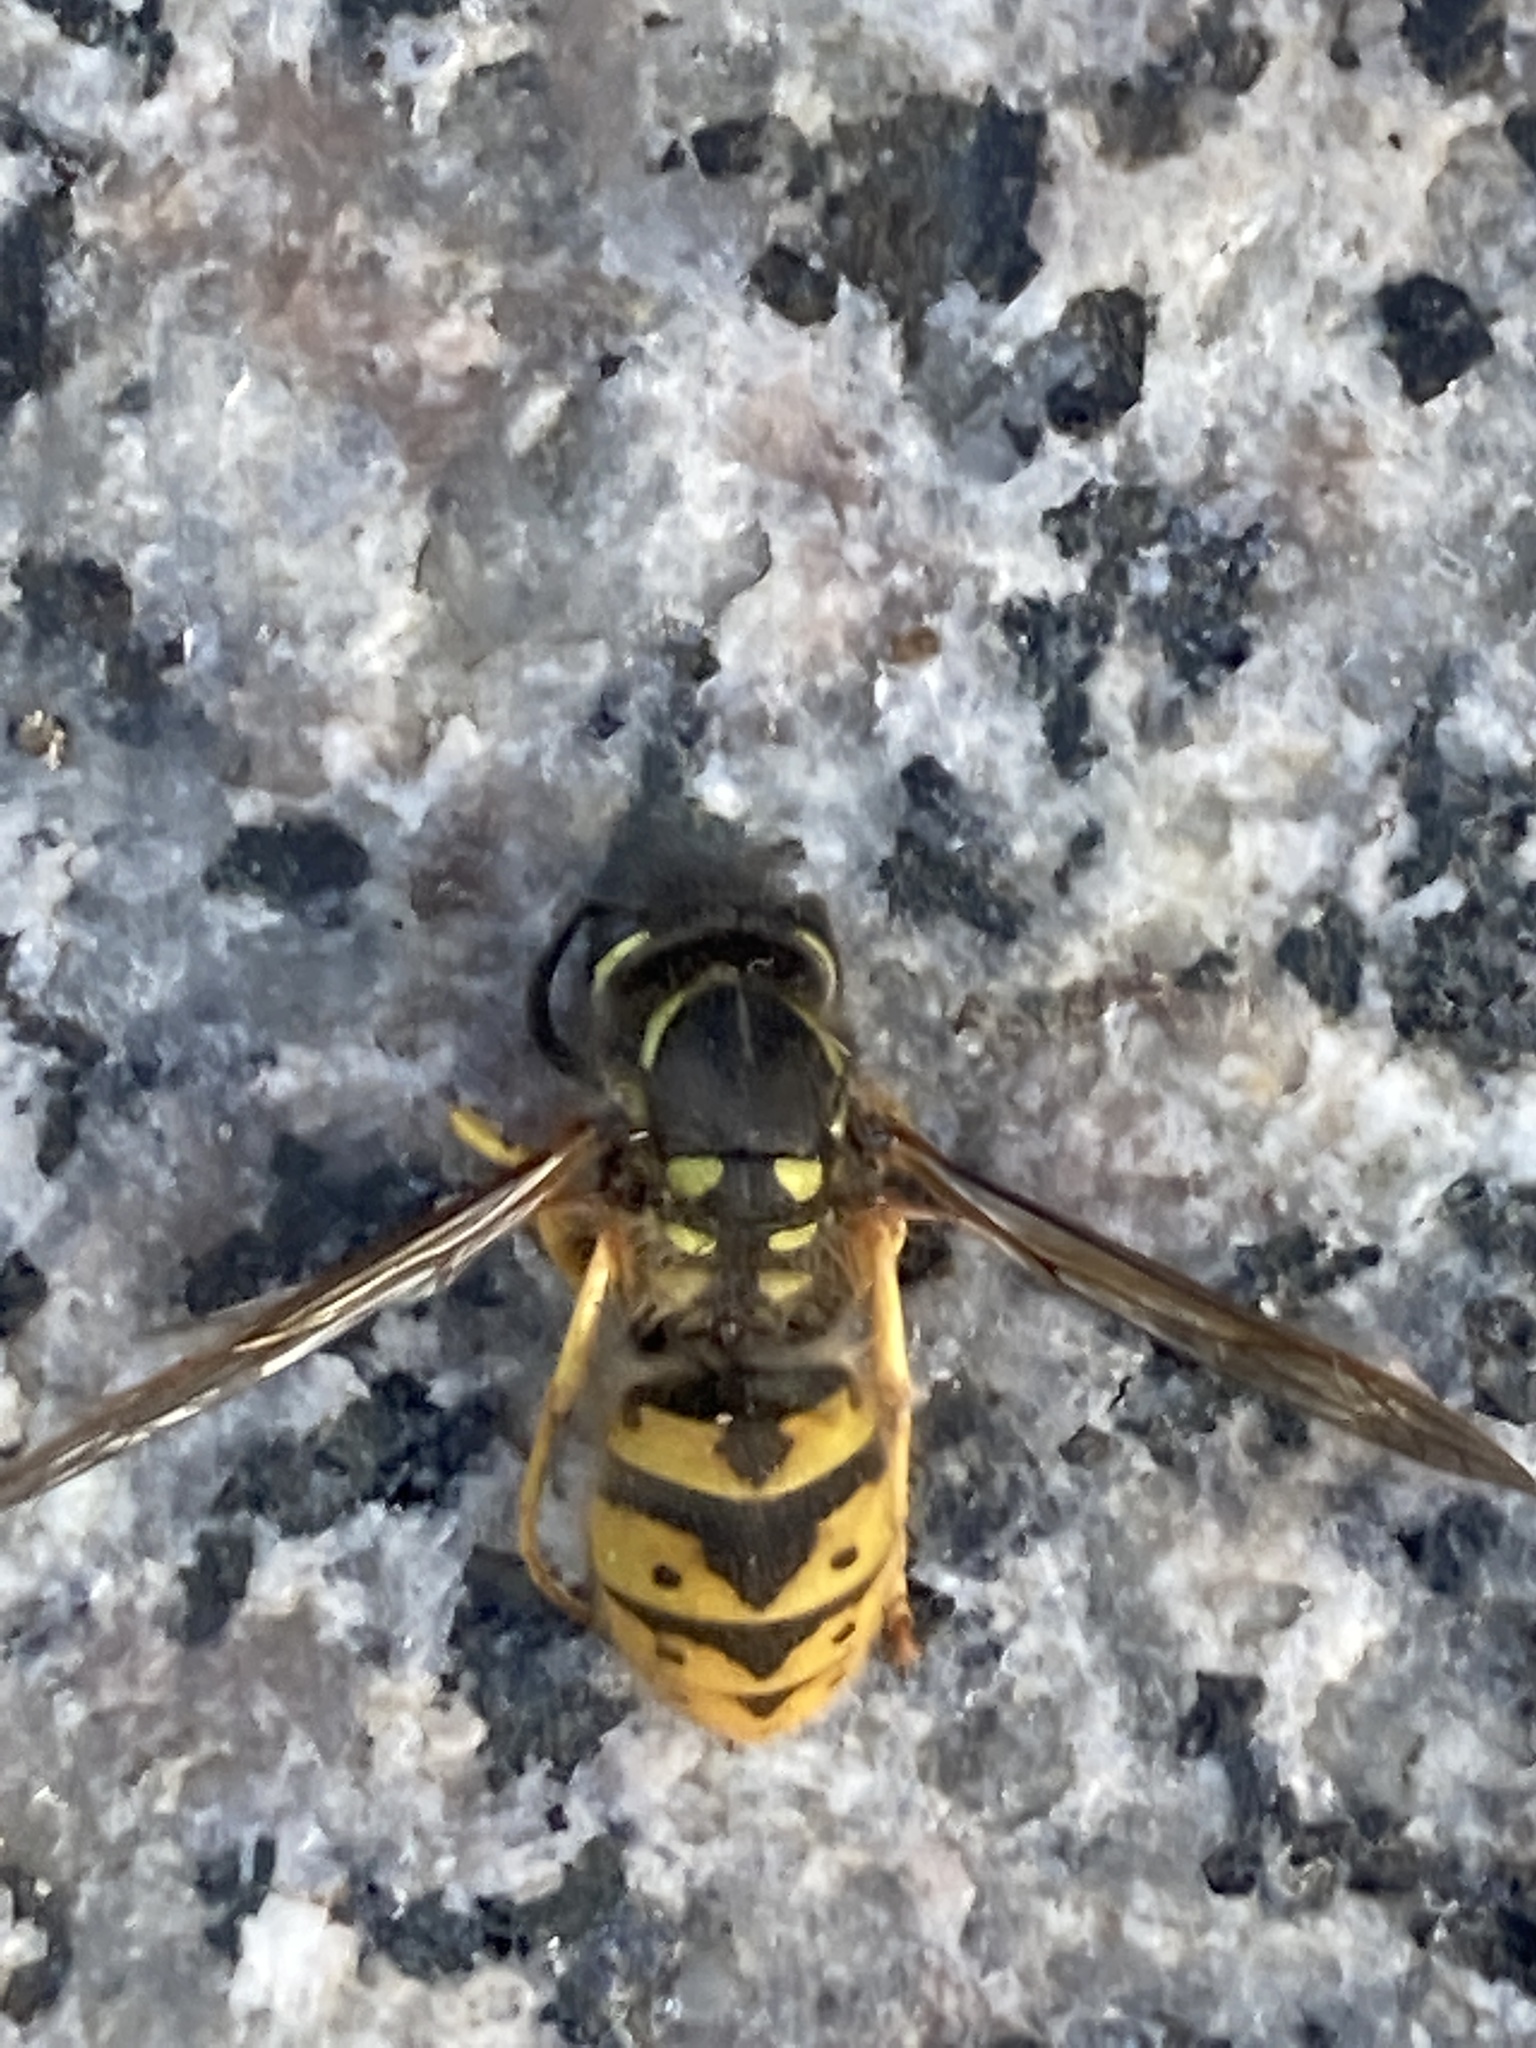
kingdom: Animalia
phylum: Arthropoda
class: Insecta
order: Hymenoptera
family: Vespidae
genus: Vespula
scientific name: Vespula germanica
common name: German wasp
